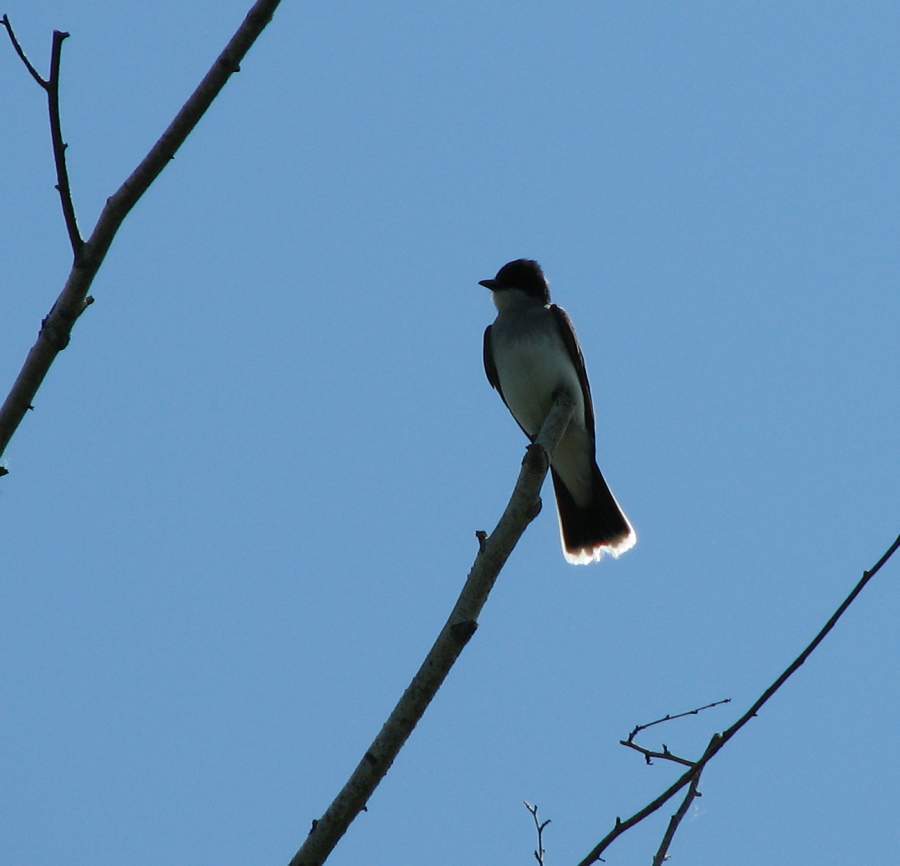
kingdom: Animalia
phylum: Chordata
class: Aves
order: Passeriformes
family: Tyrannidae
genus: Tyrannus
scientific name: Tyrannus tyrannus
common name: Eastern kingbird
